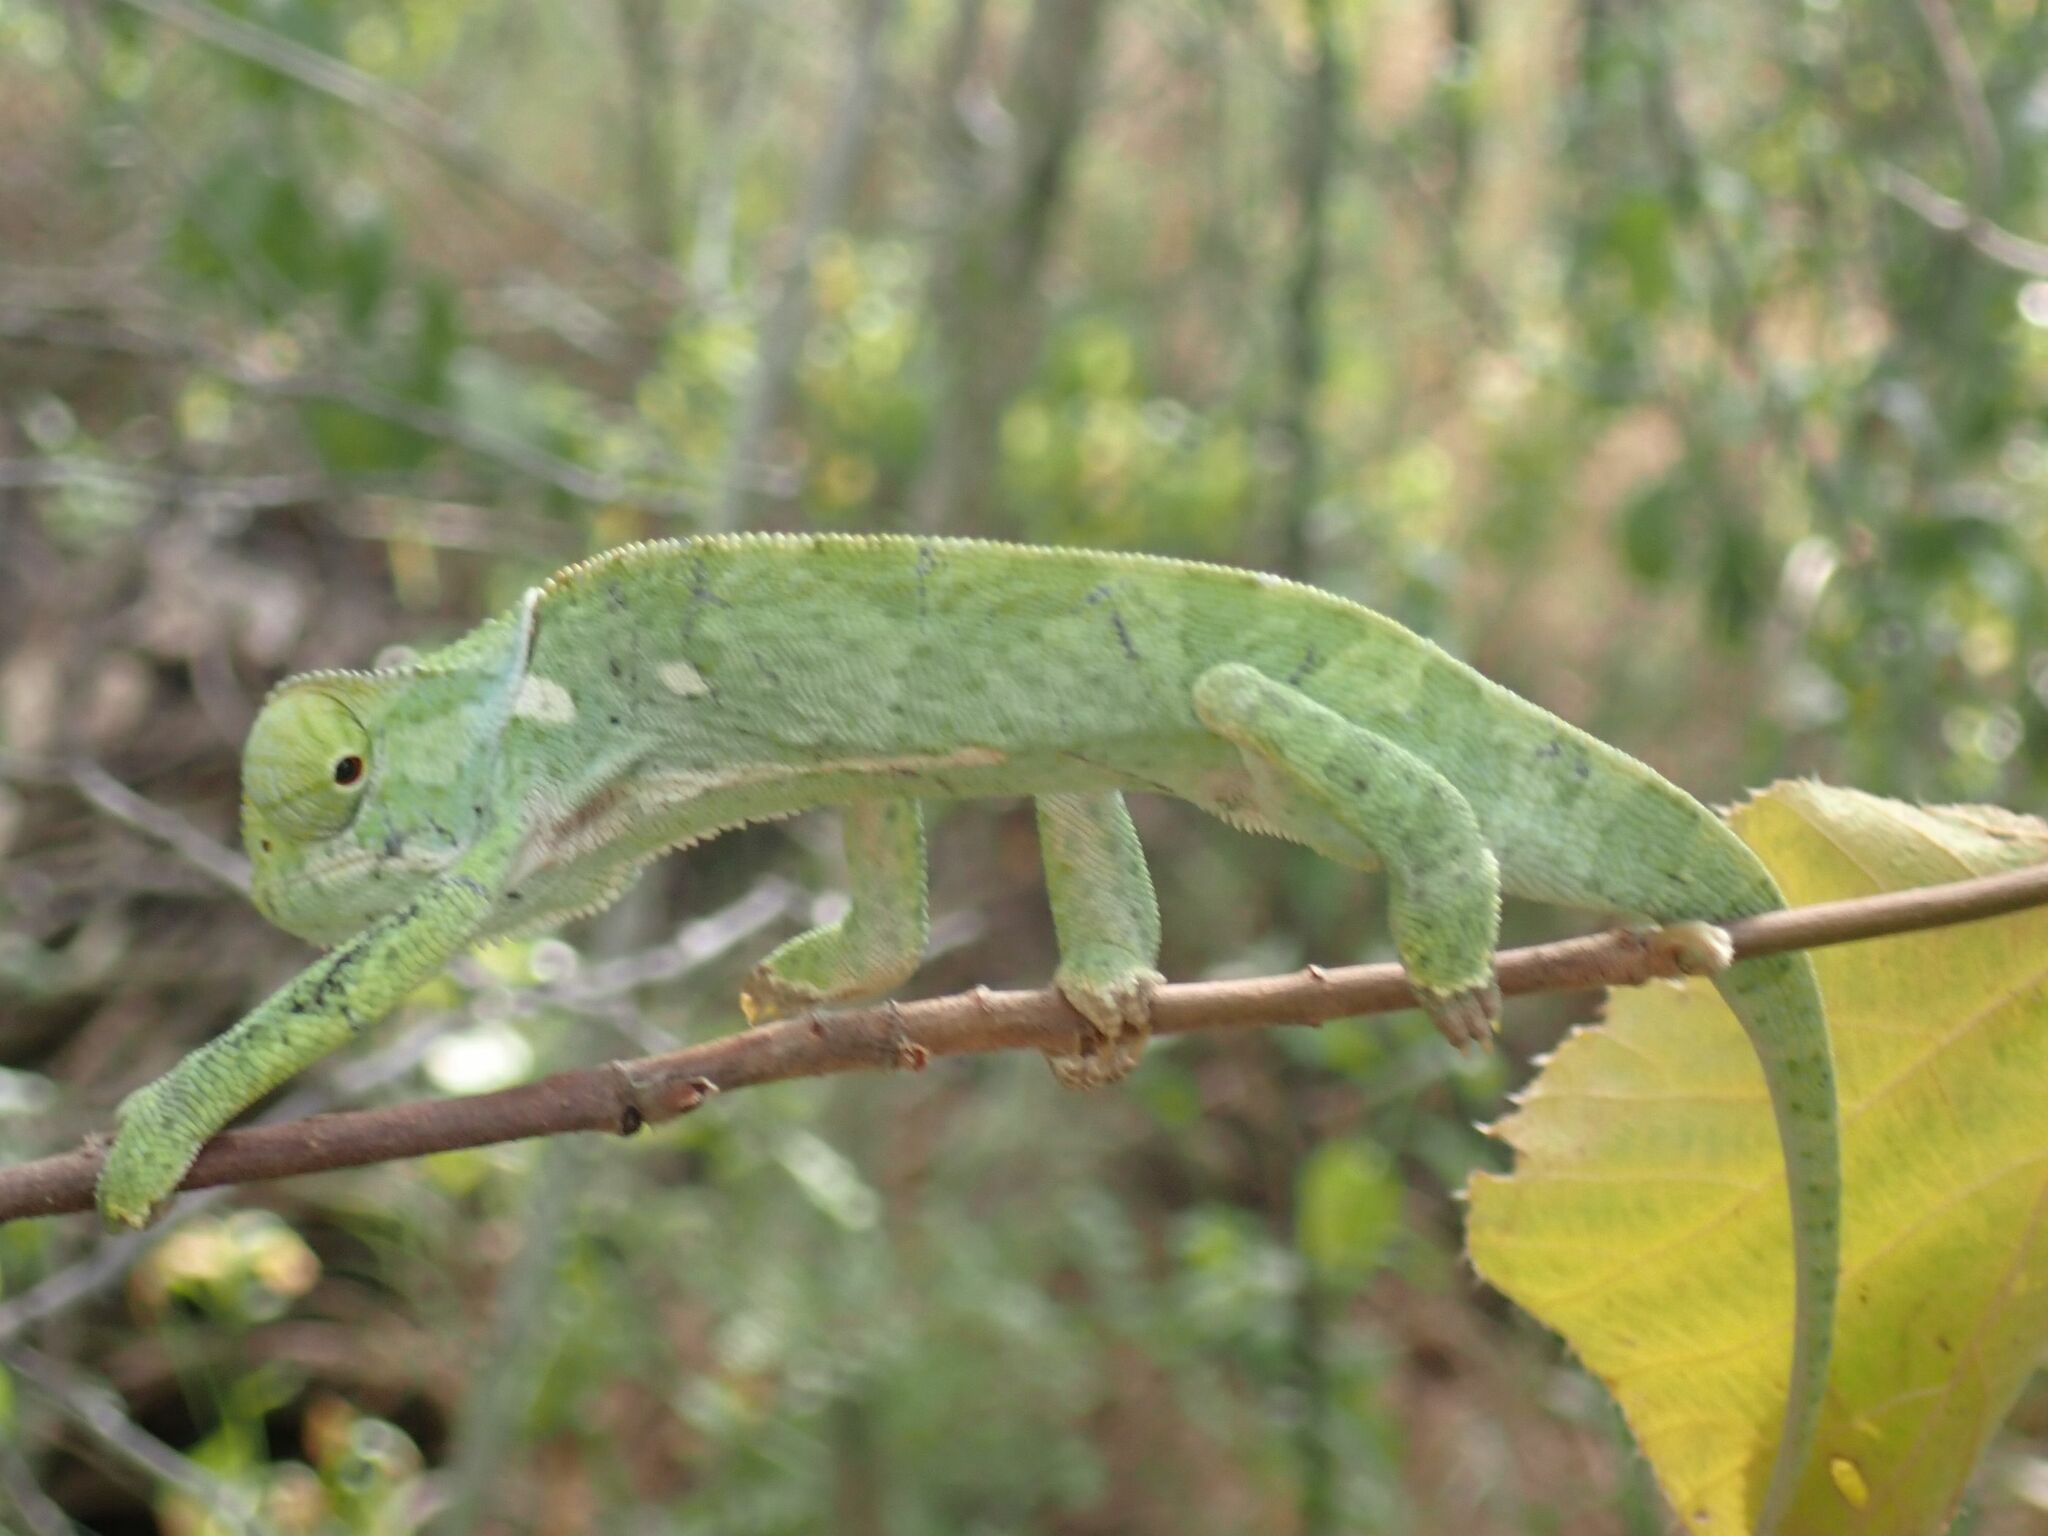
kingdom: Animalia
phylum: Chordata
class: Squamata
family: Chamaeleonidae
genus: Chamaeleo
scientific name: Chamaeleo dilepis
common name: Flapneck chameleon
